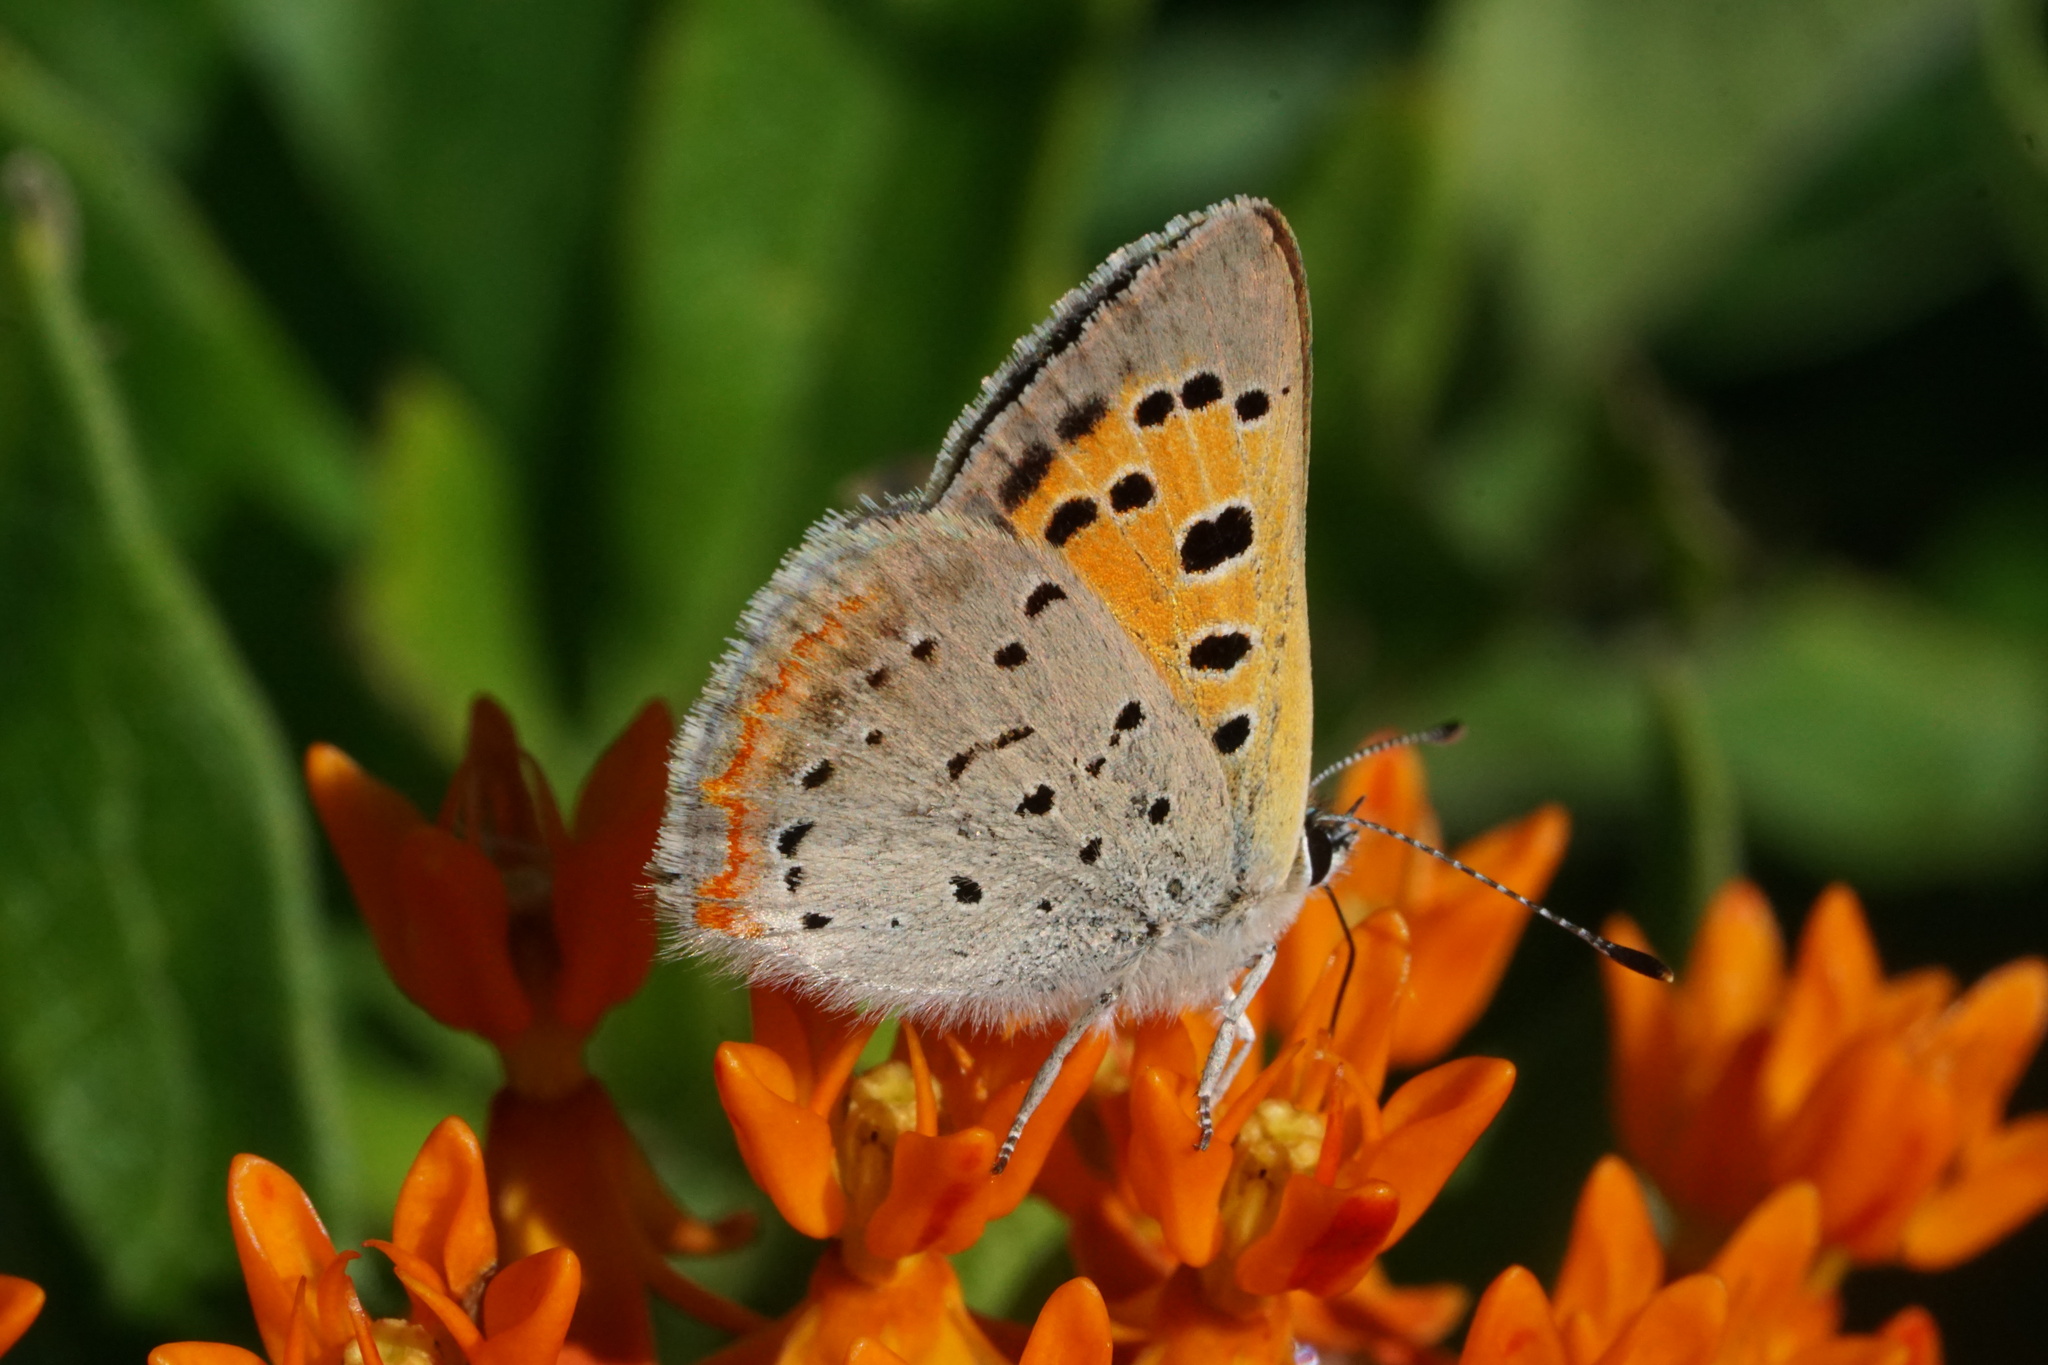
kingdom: Animalia
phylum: Arthropoda
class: Insecta
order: Lepidoptera
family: Lycaenidae
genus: Lycaena
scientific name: Lycaena hypophlaeas
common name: American copper
